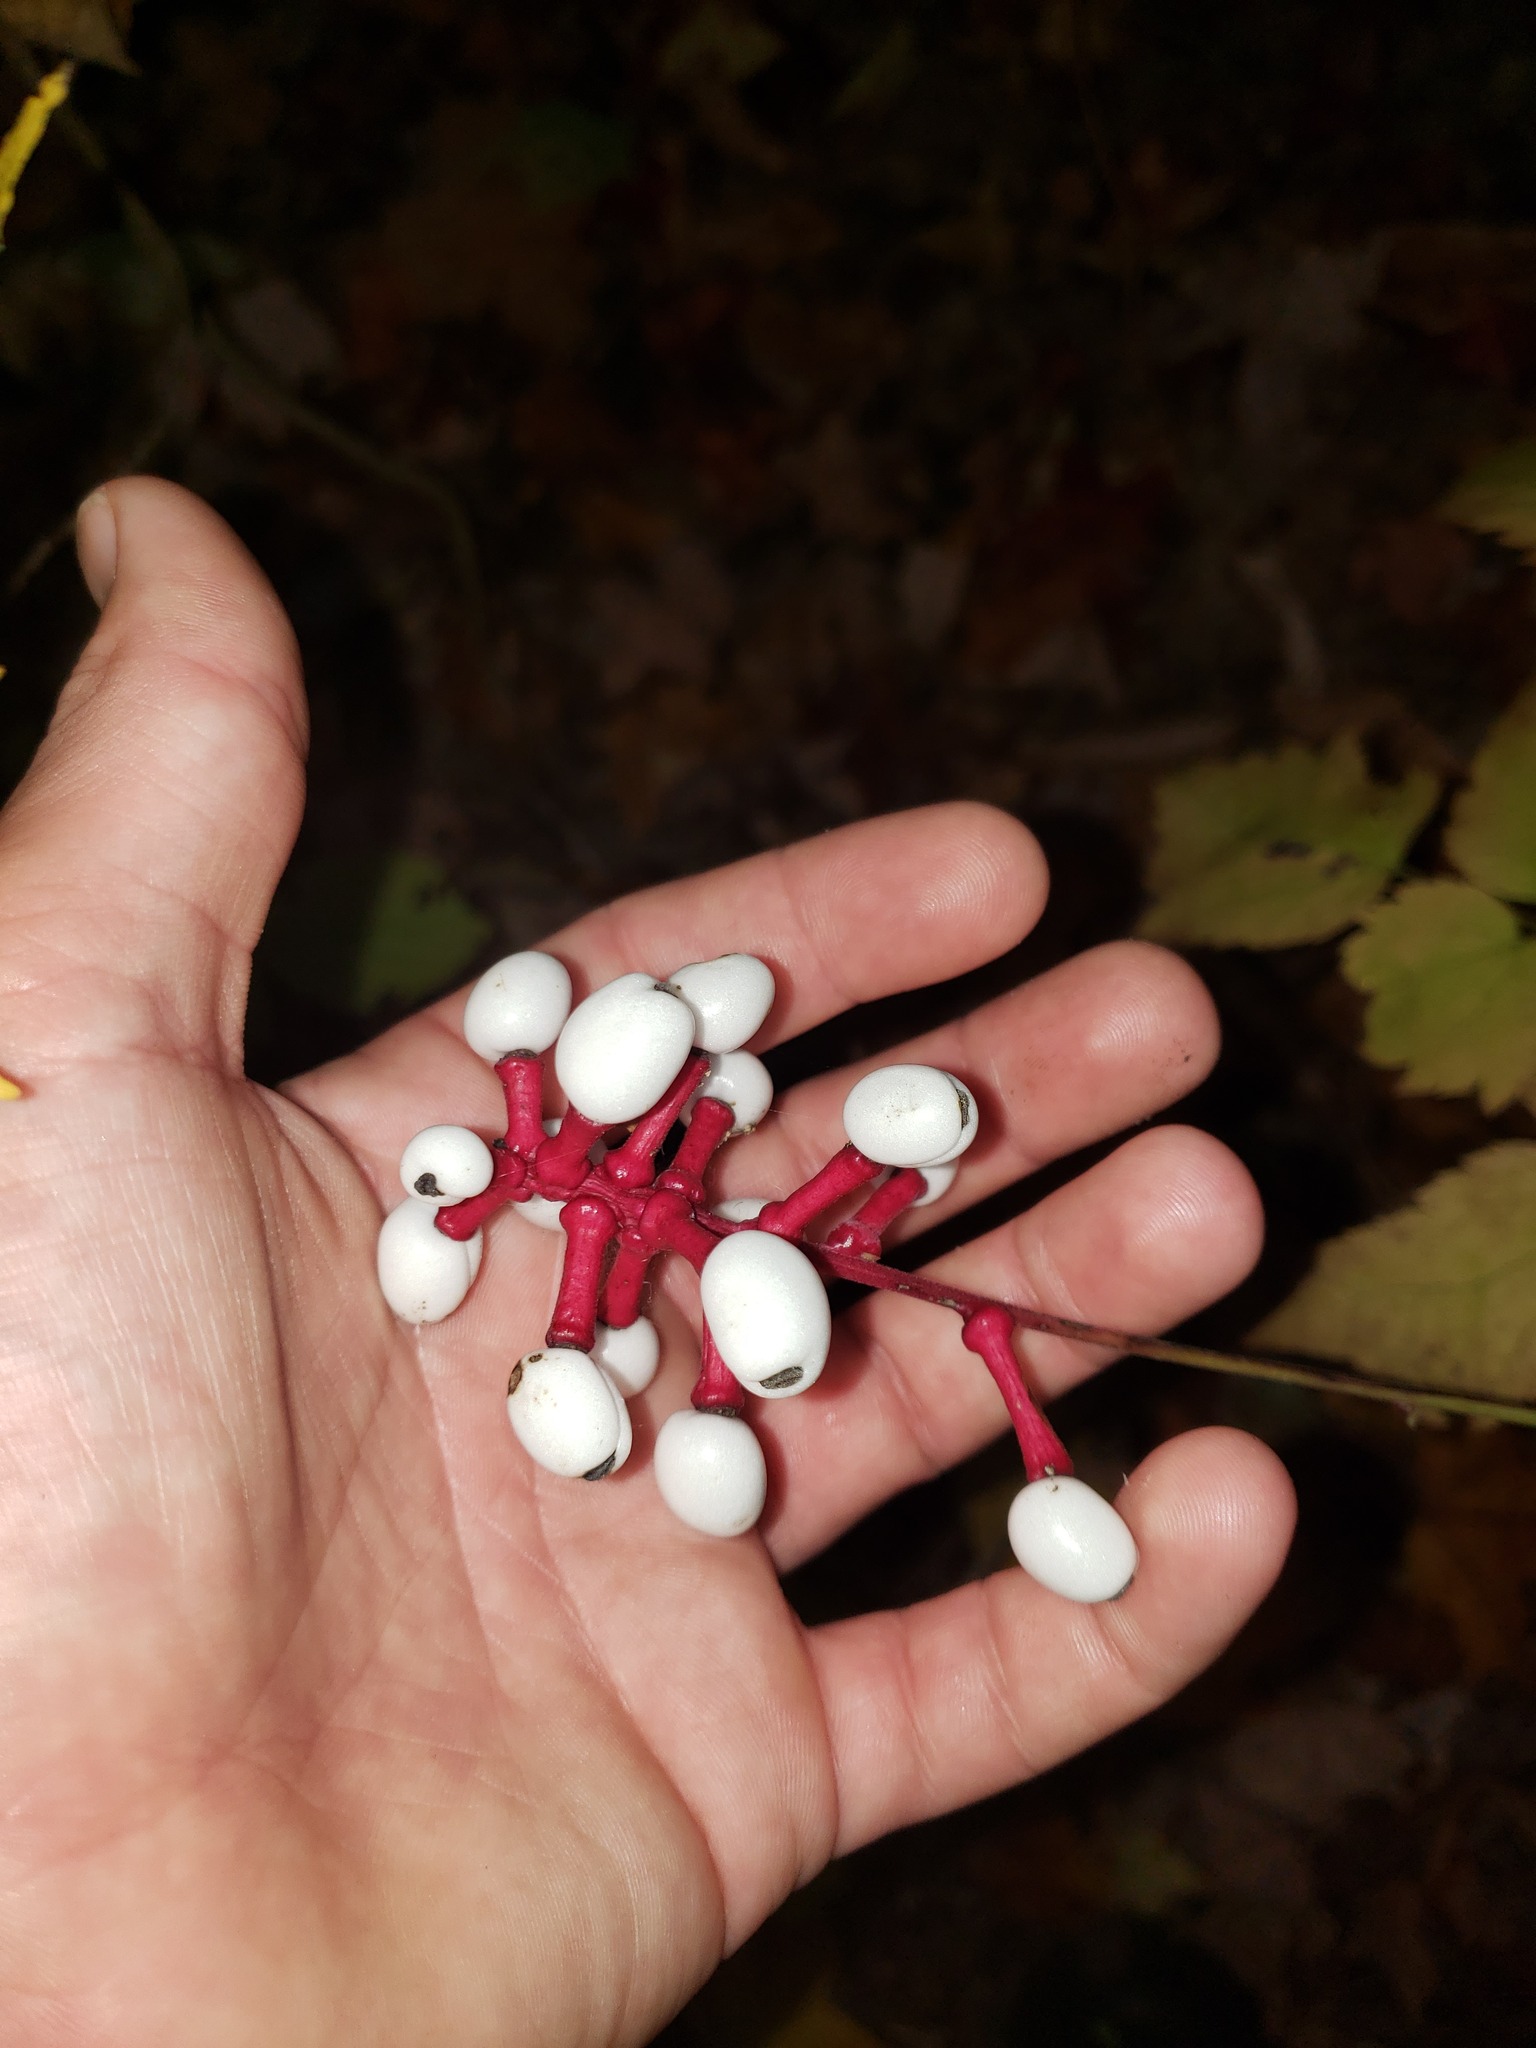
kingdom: Plantae
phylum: Tracheophyta
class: Magnoliopsida
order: Ranunculales
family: Ranunculaceae
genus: Actaea
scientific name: Actaea pachypoda
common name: Doll's-eyes
